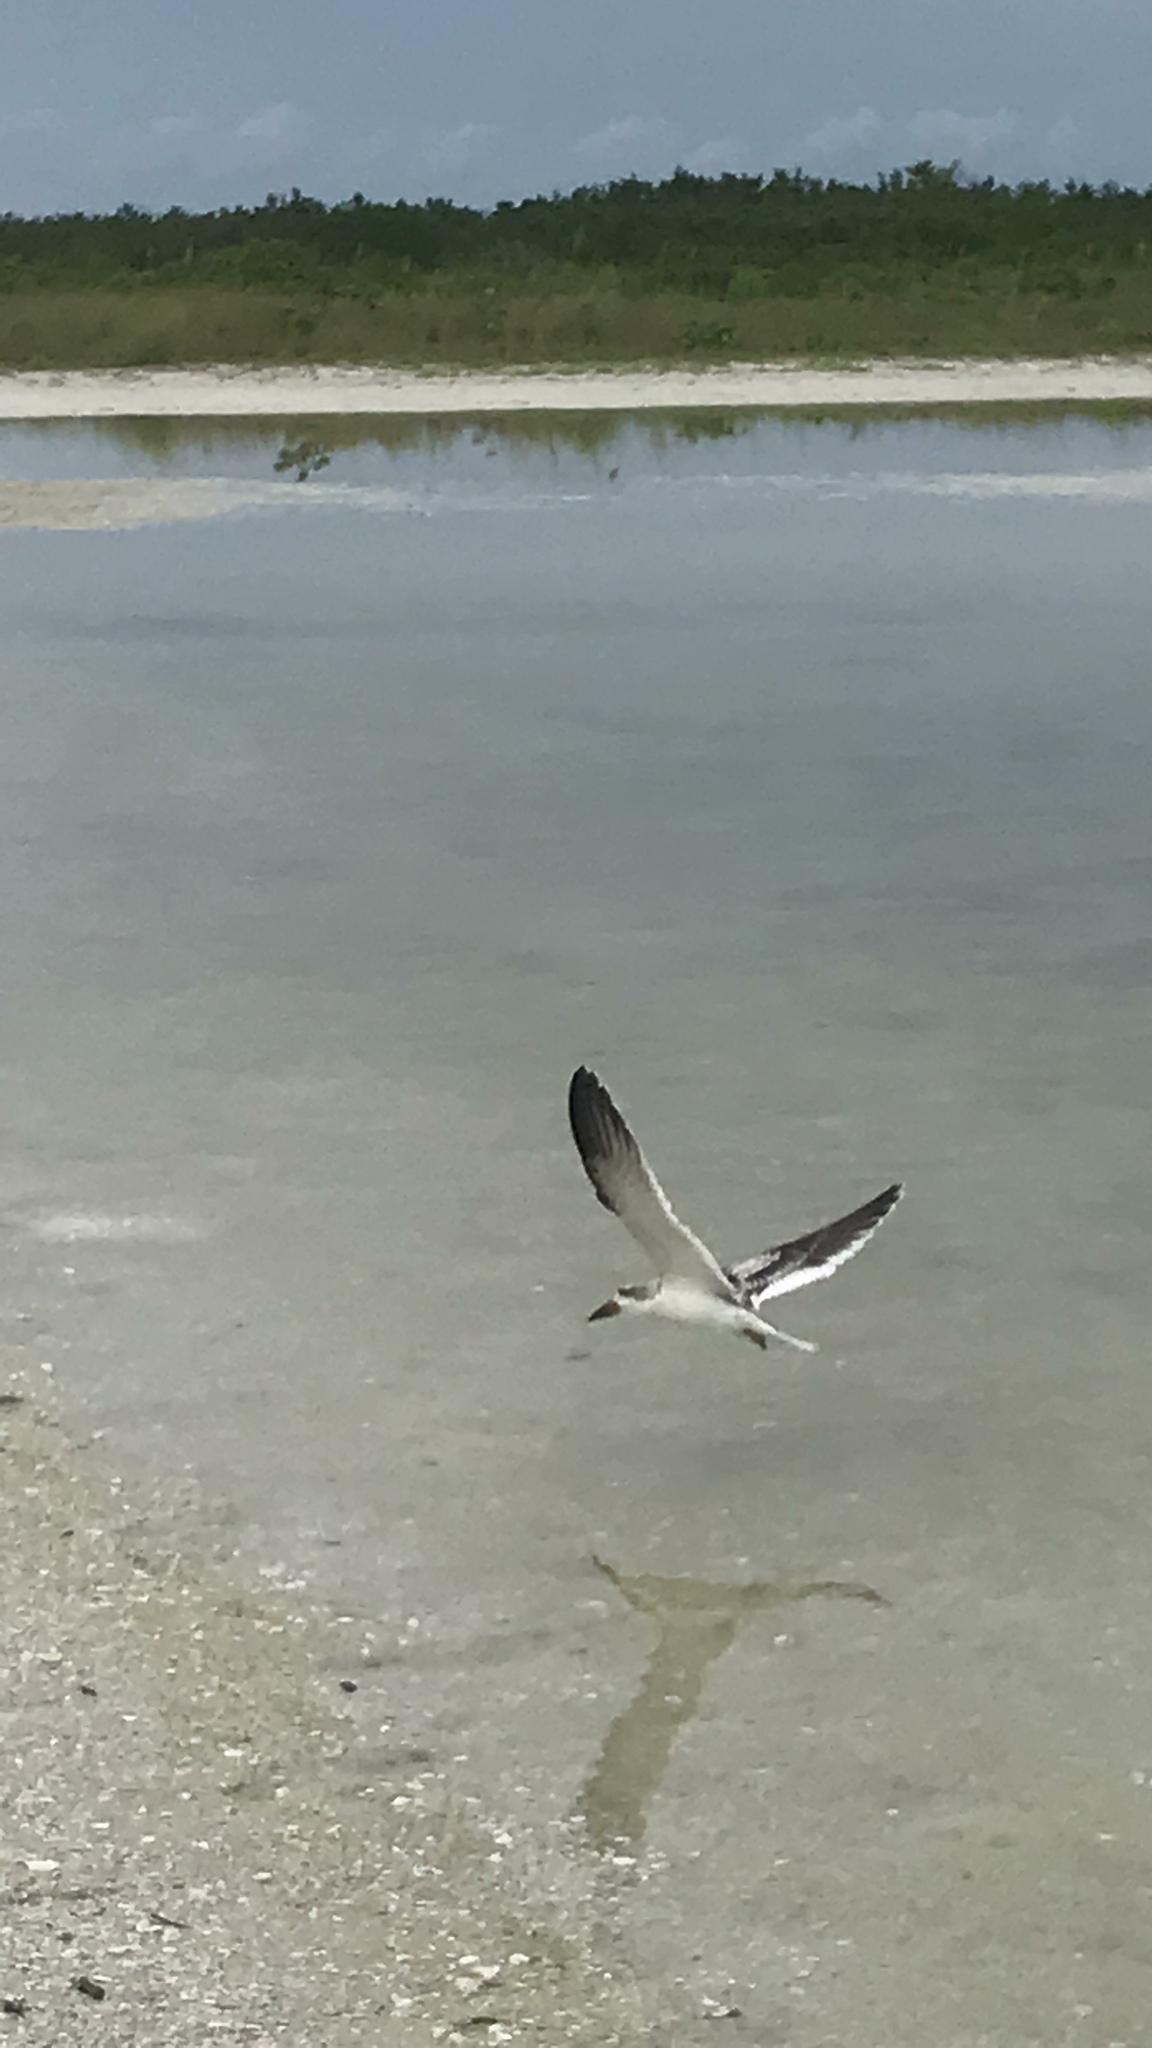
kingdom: Animalia
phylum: Chordata
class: Aves
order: Charadriiformes
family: Laridae
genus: Rynchops
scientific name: Rynchops niger
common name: Black skimmer
